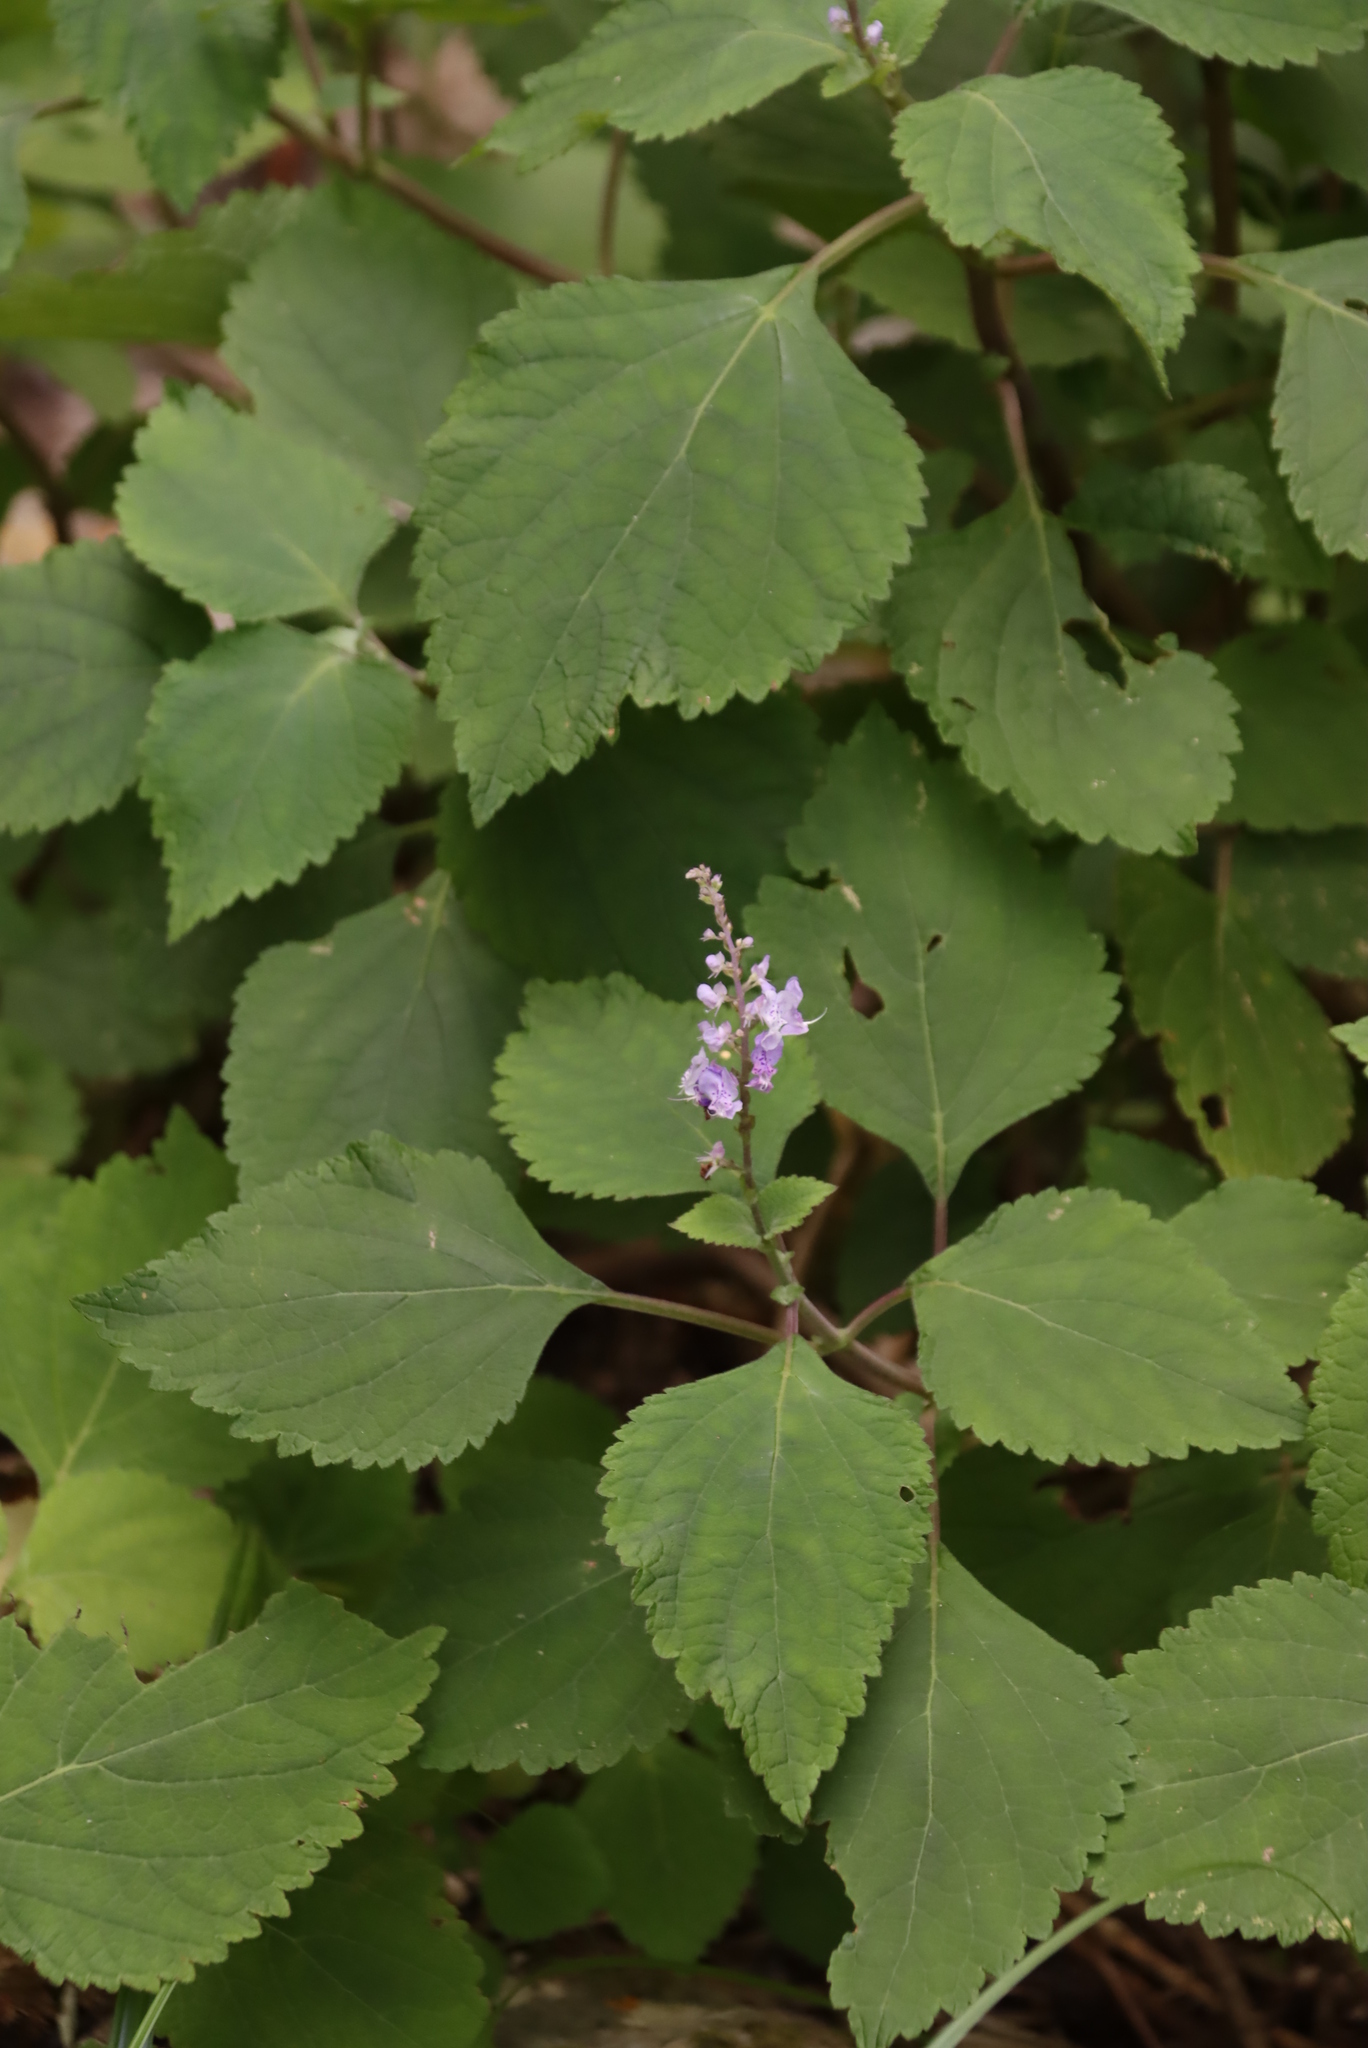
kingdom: Plantae
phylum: Tracheophyta
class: Magnoliopsida
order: Lamiales
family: Lamiaceae
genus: Plectranthus
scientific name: Plectranthus fruticosus
